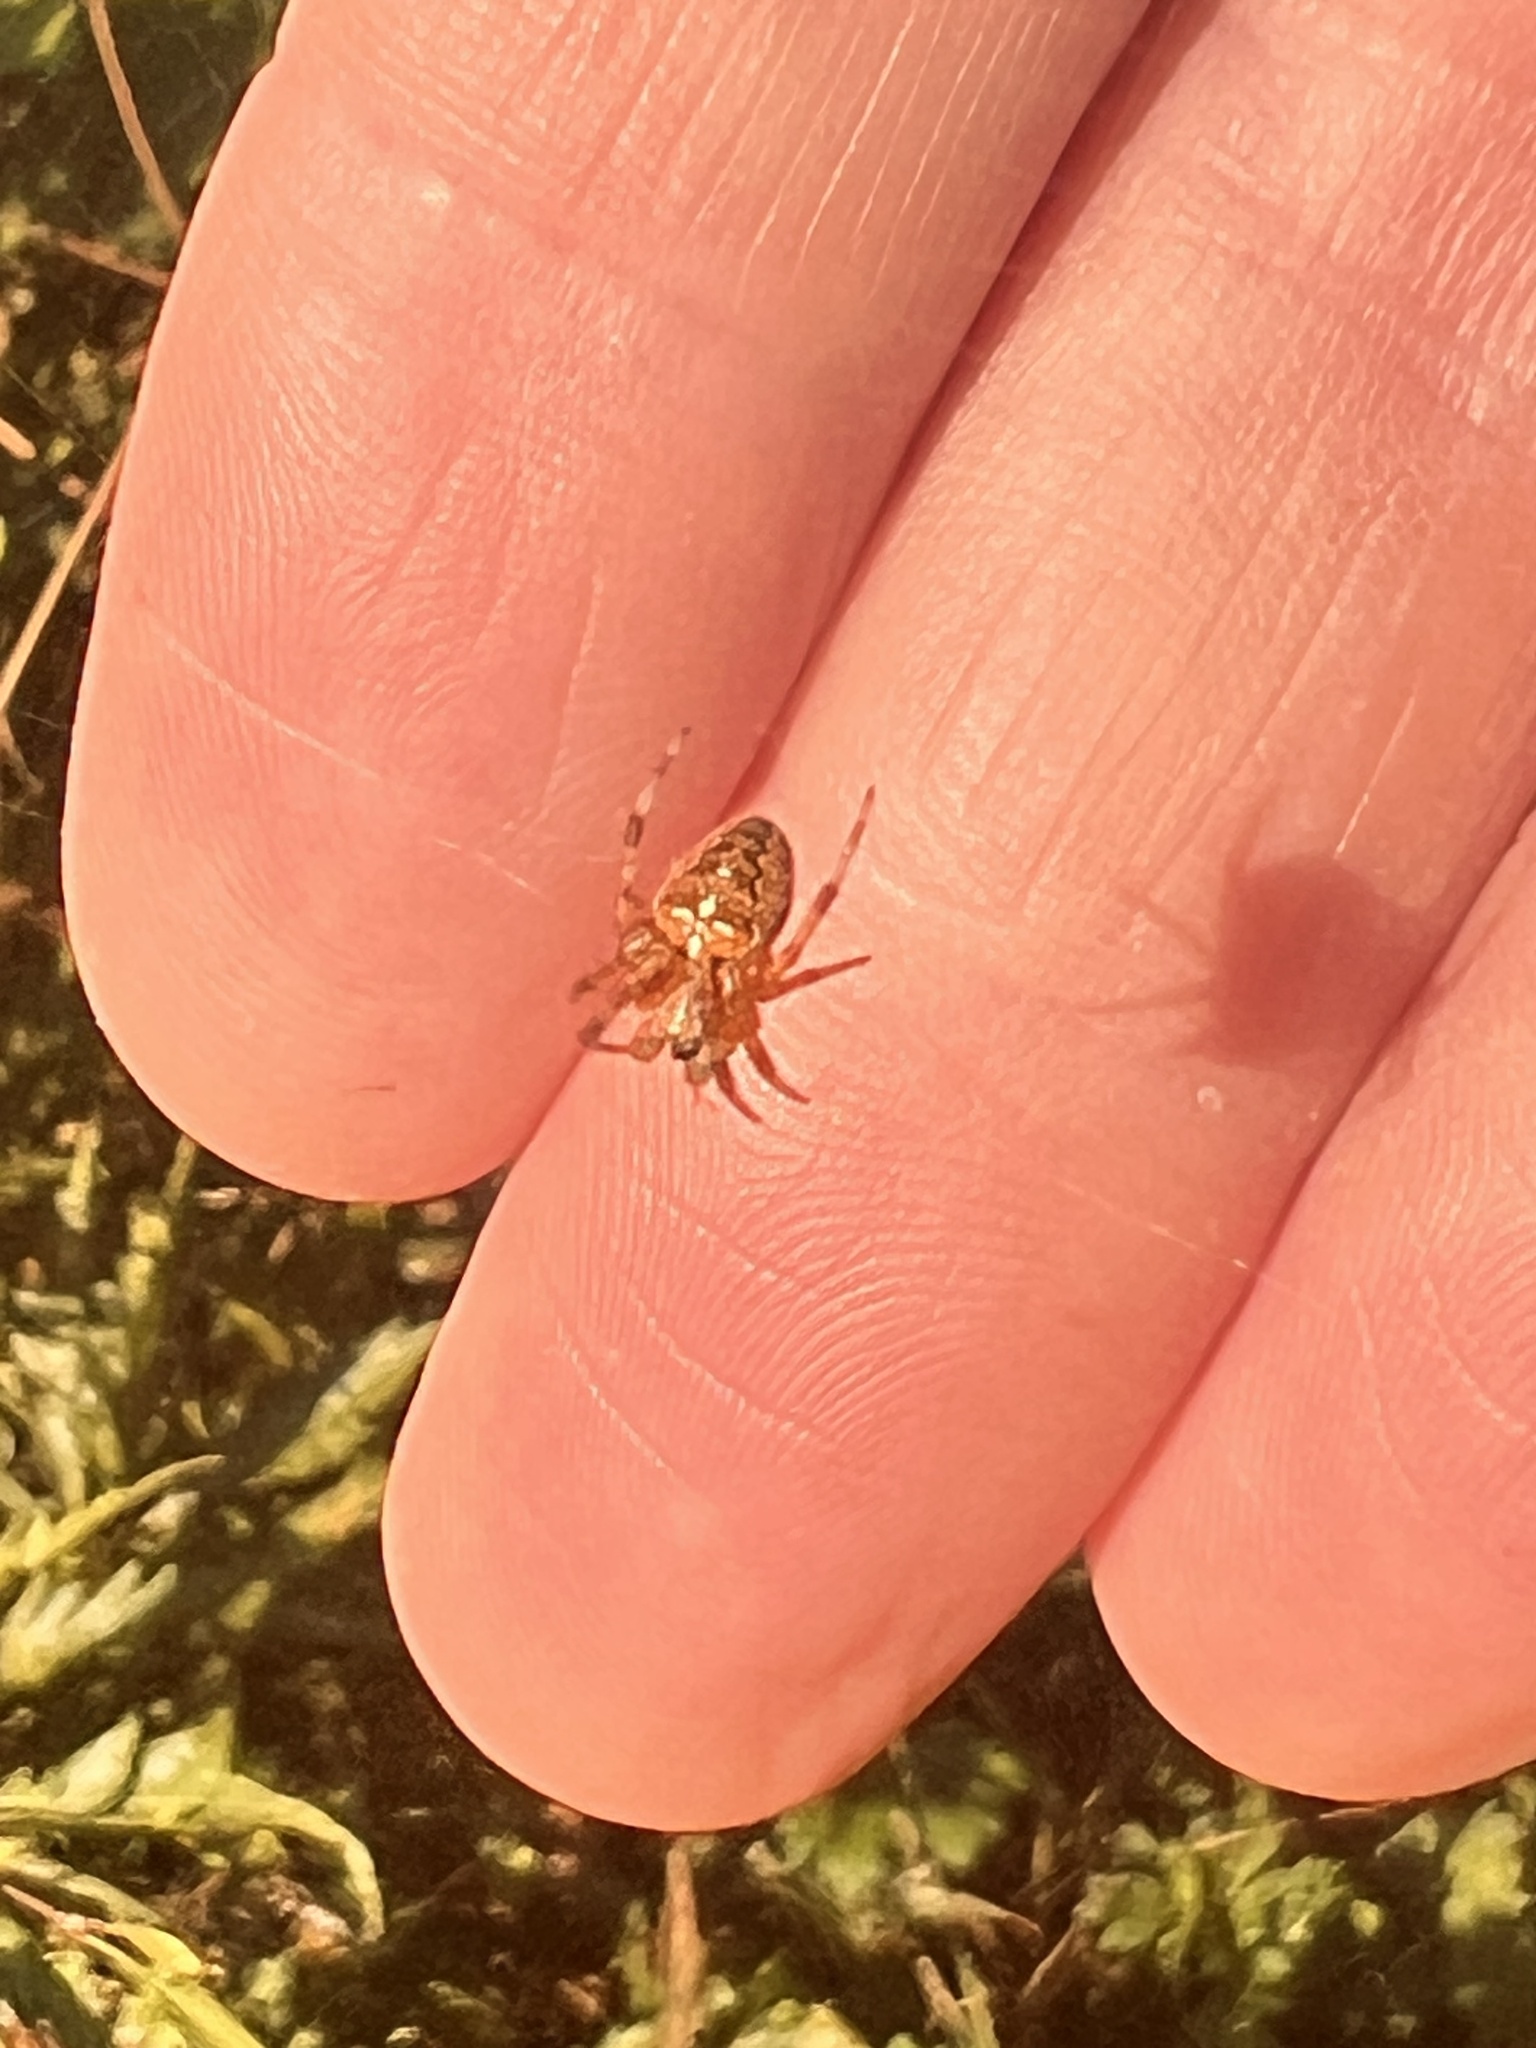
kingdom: Animalia
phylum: Arthropoda
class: Arachnida
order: Araneae
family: Araneidae
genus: Araneus
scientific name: Araneus diadematus
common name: Cross orbweaver
